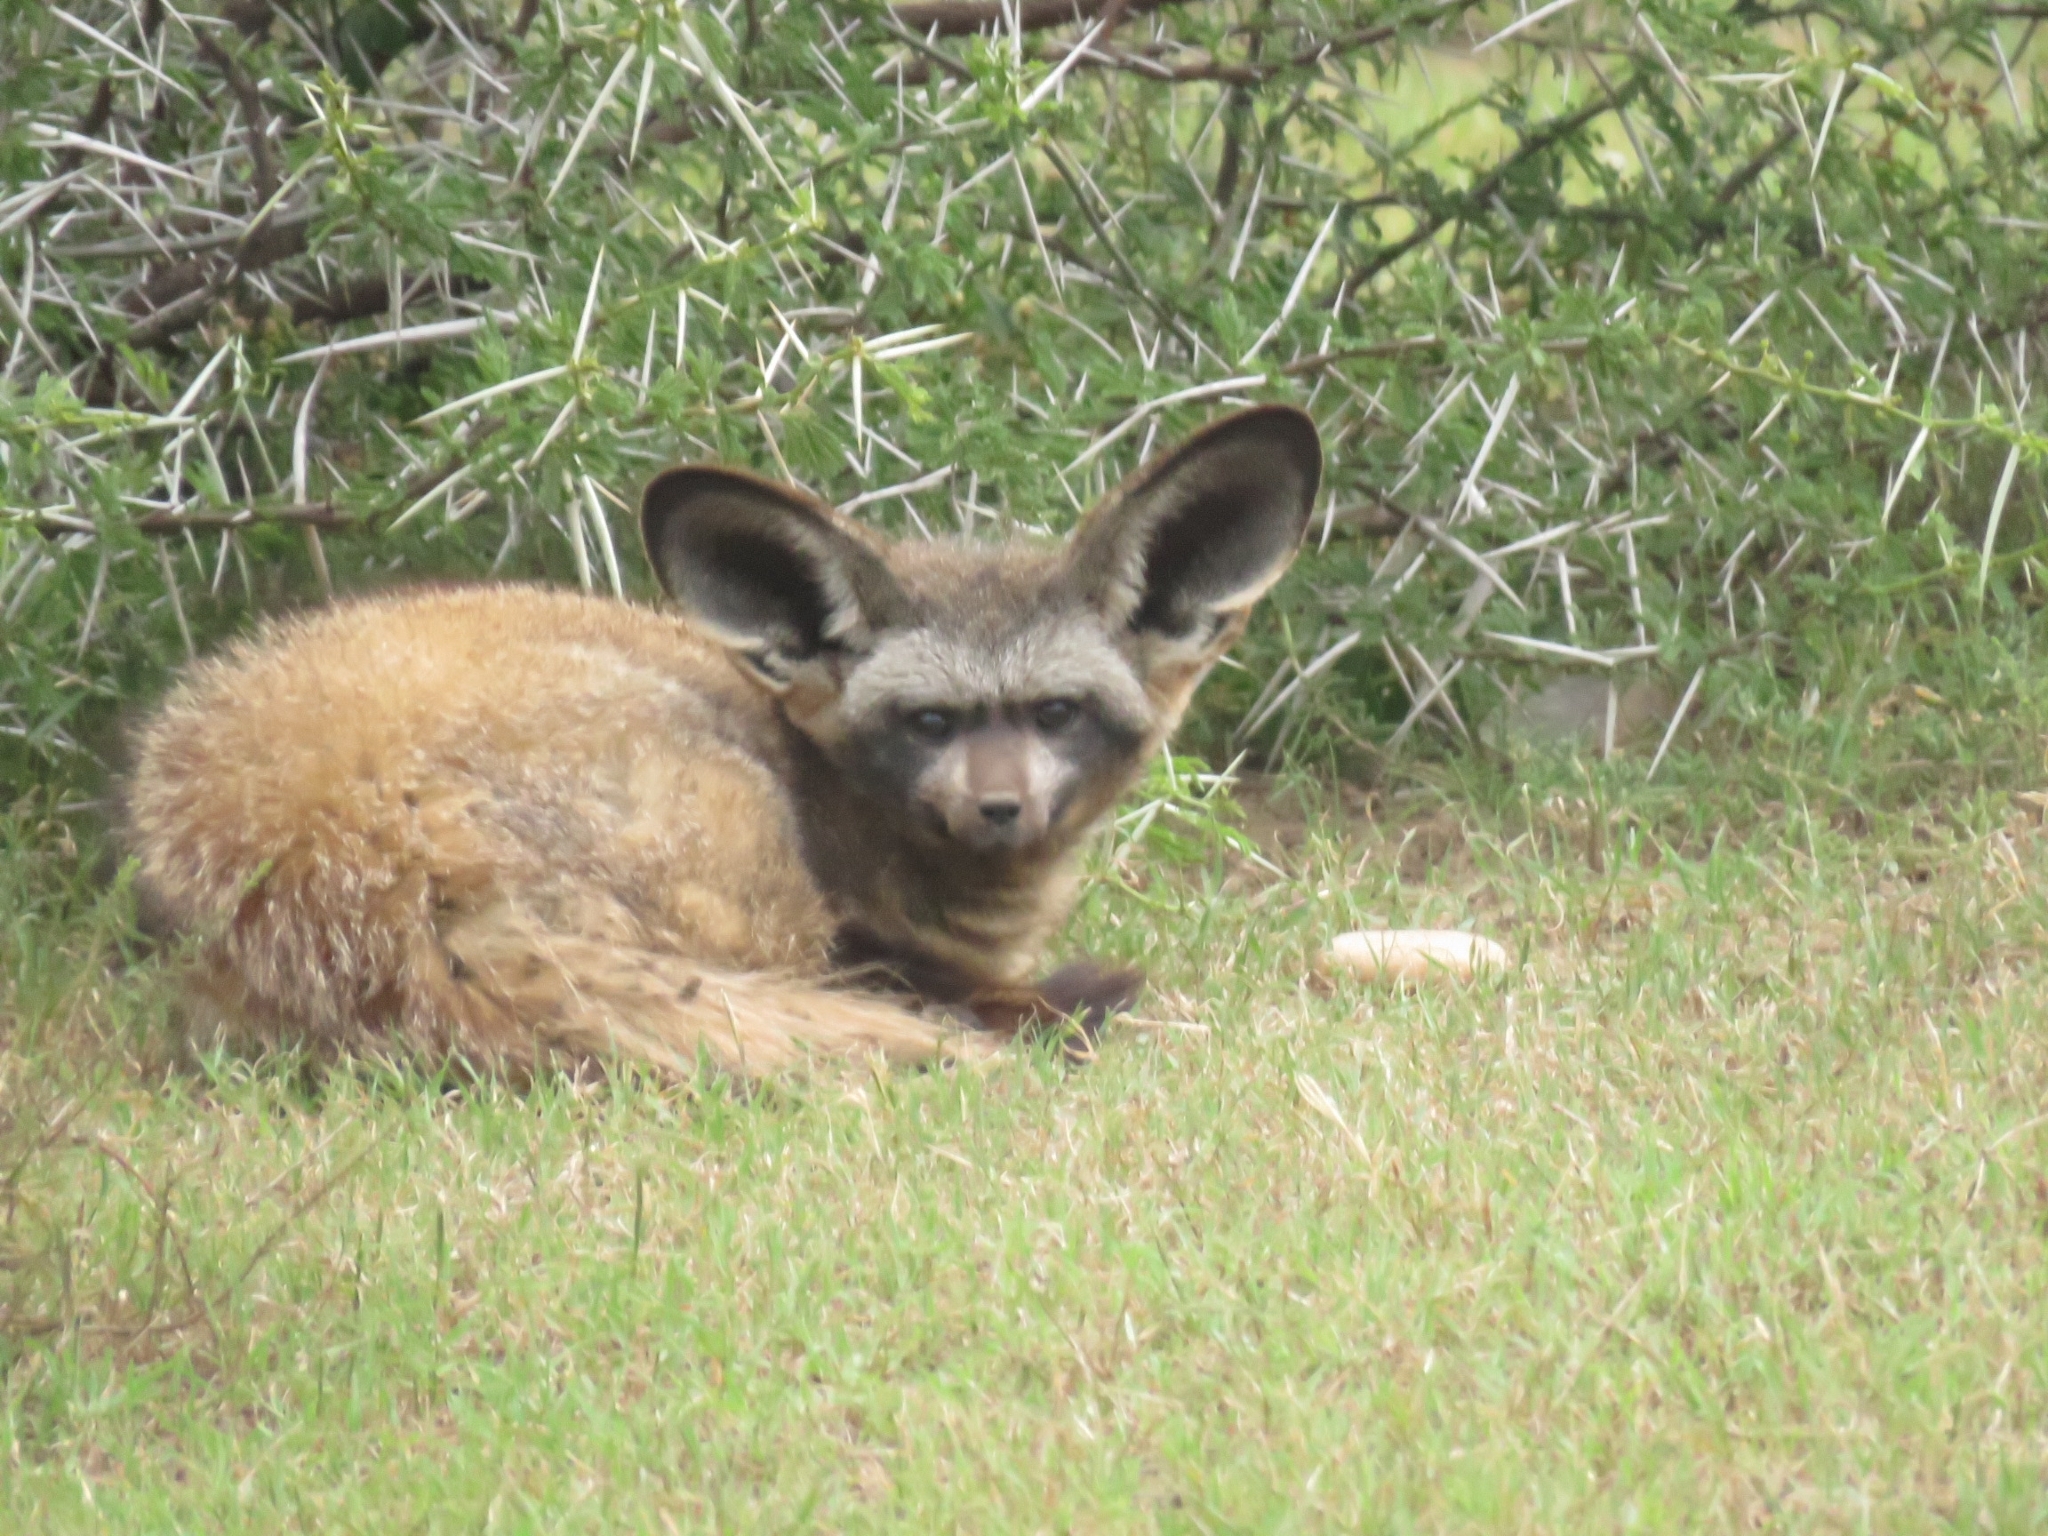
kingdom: Animalia
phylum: Chordata
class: Mammalia
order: Carnivora
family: Canidae
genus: Otocyon
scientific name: Otocyon megalotis
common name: Bat-eared fox
